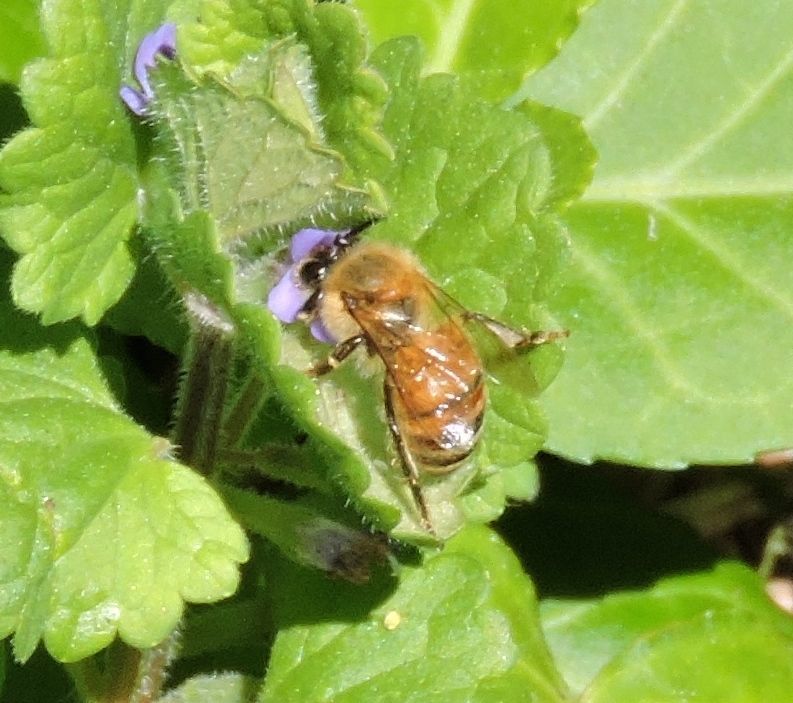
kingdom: Animalia
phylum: Arthropoda
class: Insecta
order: Hymenoptera
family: Apidae
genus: Apis
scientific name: Apis mellifera
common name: Honey bee
